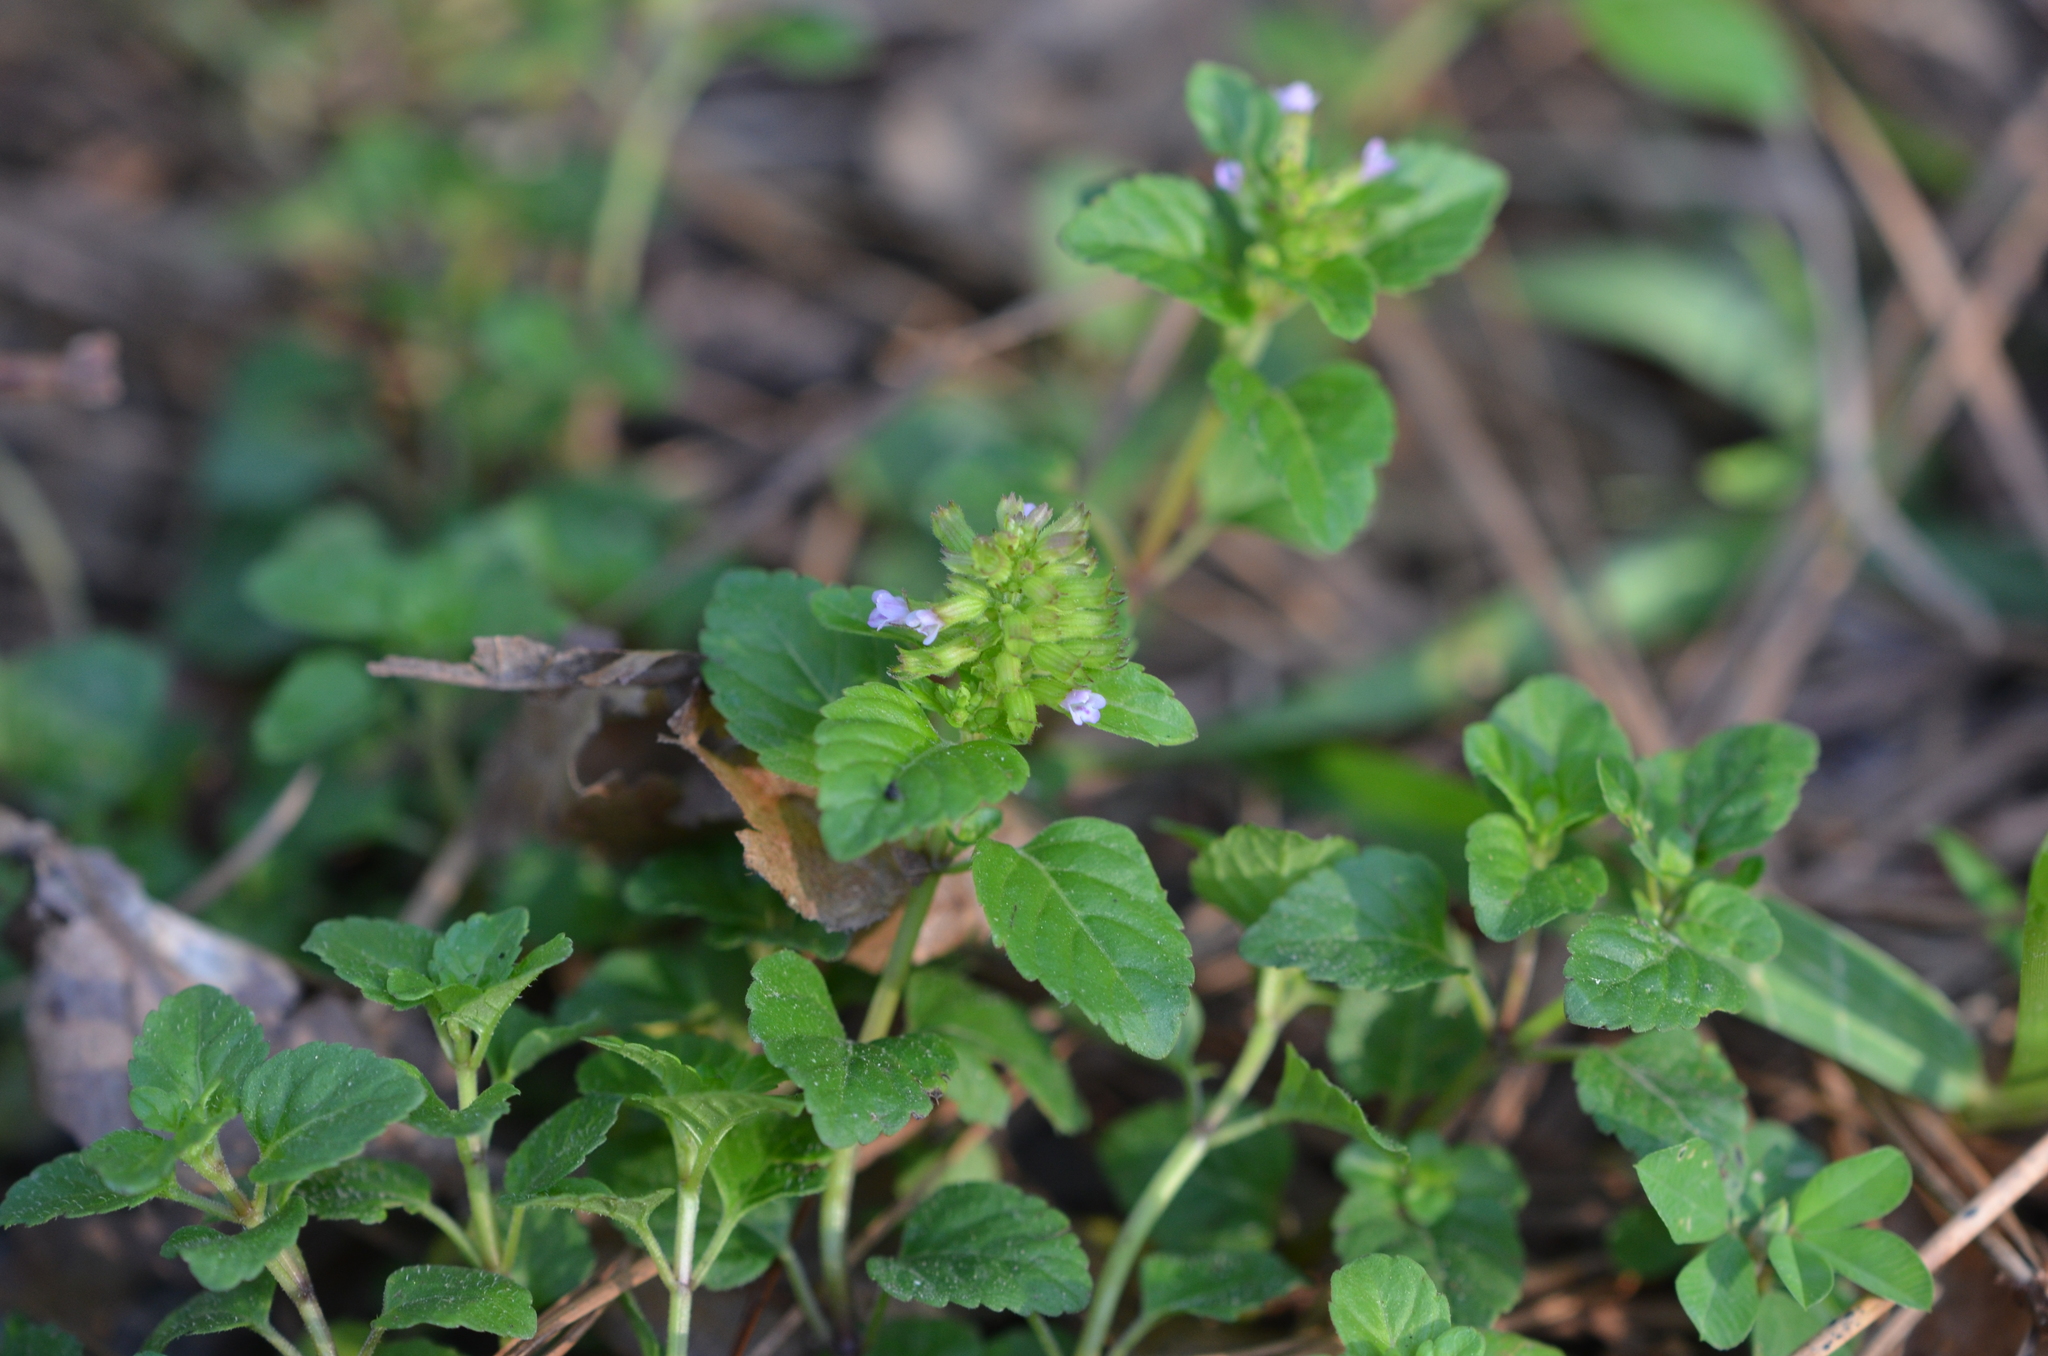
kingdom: Plantae
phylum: Tracheophyta
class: Magnoliopsida
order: Lamiales
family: Lamiaceae
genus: Clinopodium
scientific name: Clinopodium gracile
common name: Slender wild basil
